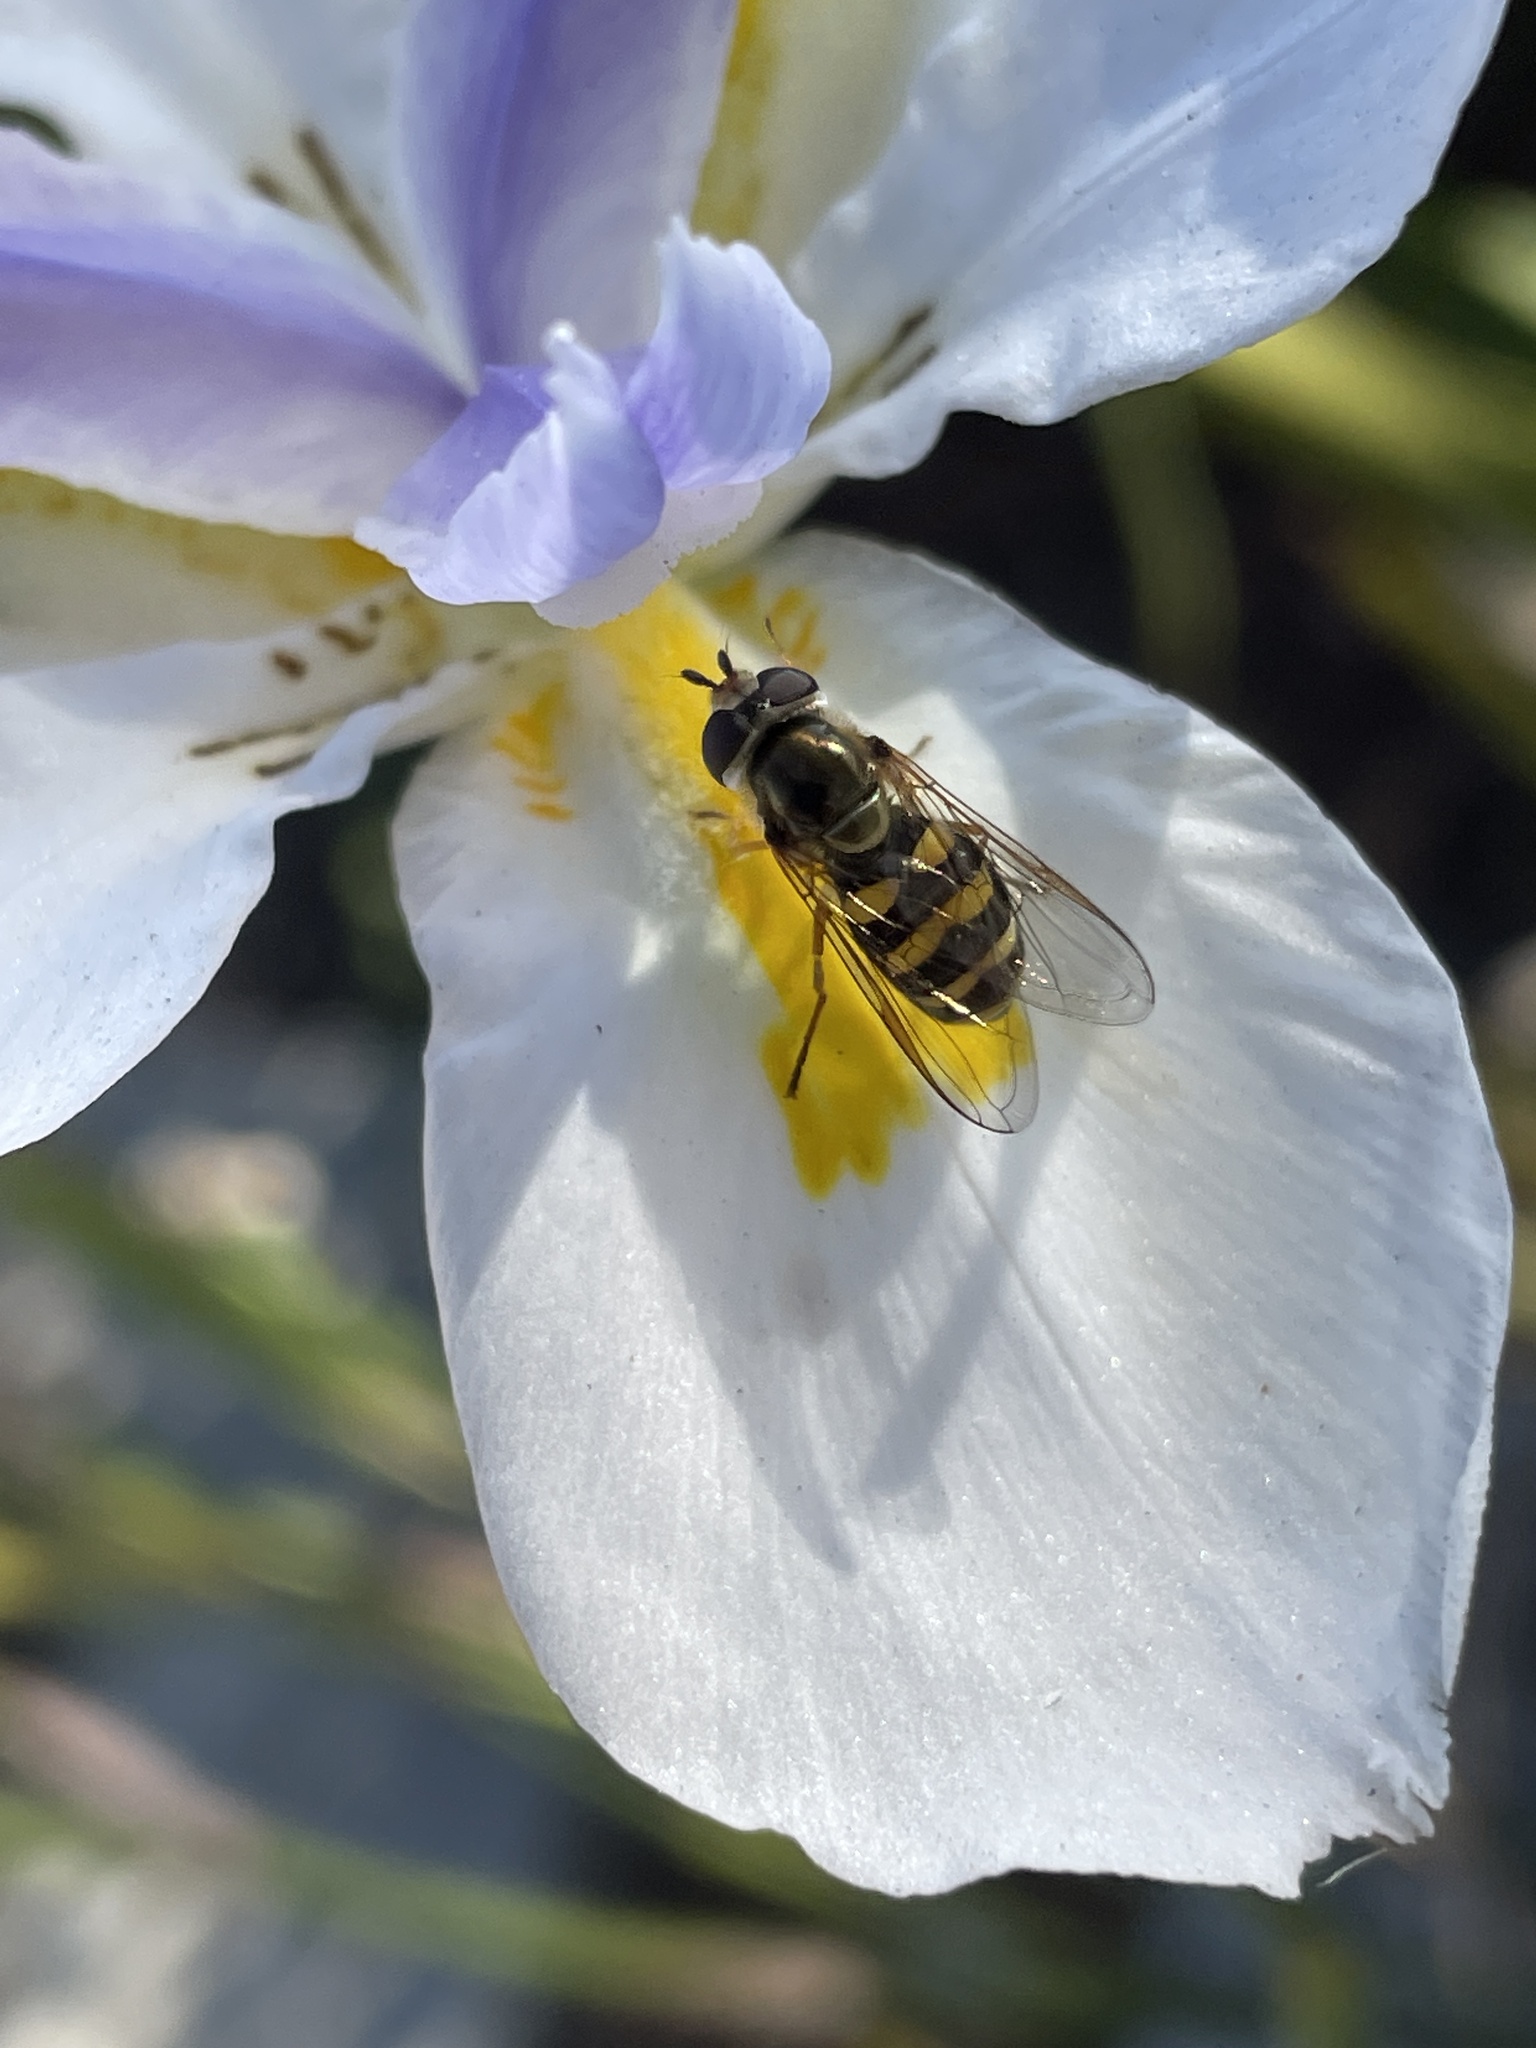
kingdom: Animalia
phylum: Arthropoda
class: Insecta
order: Diptera
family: Syrphidae
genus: Eupeodes
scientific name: Eupeodes fumipennis
